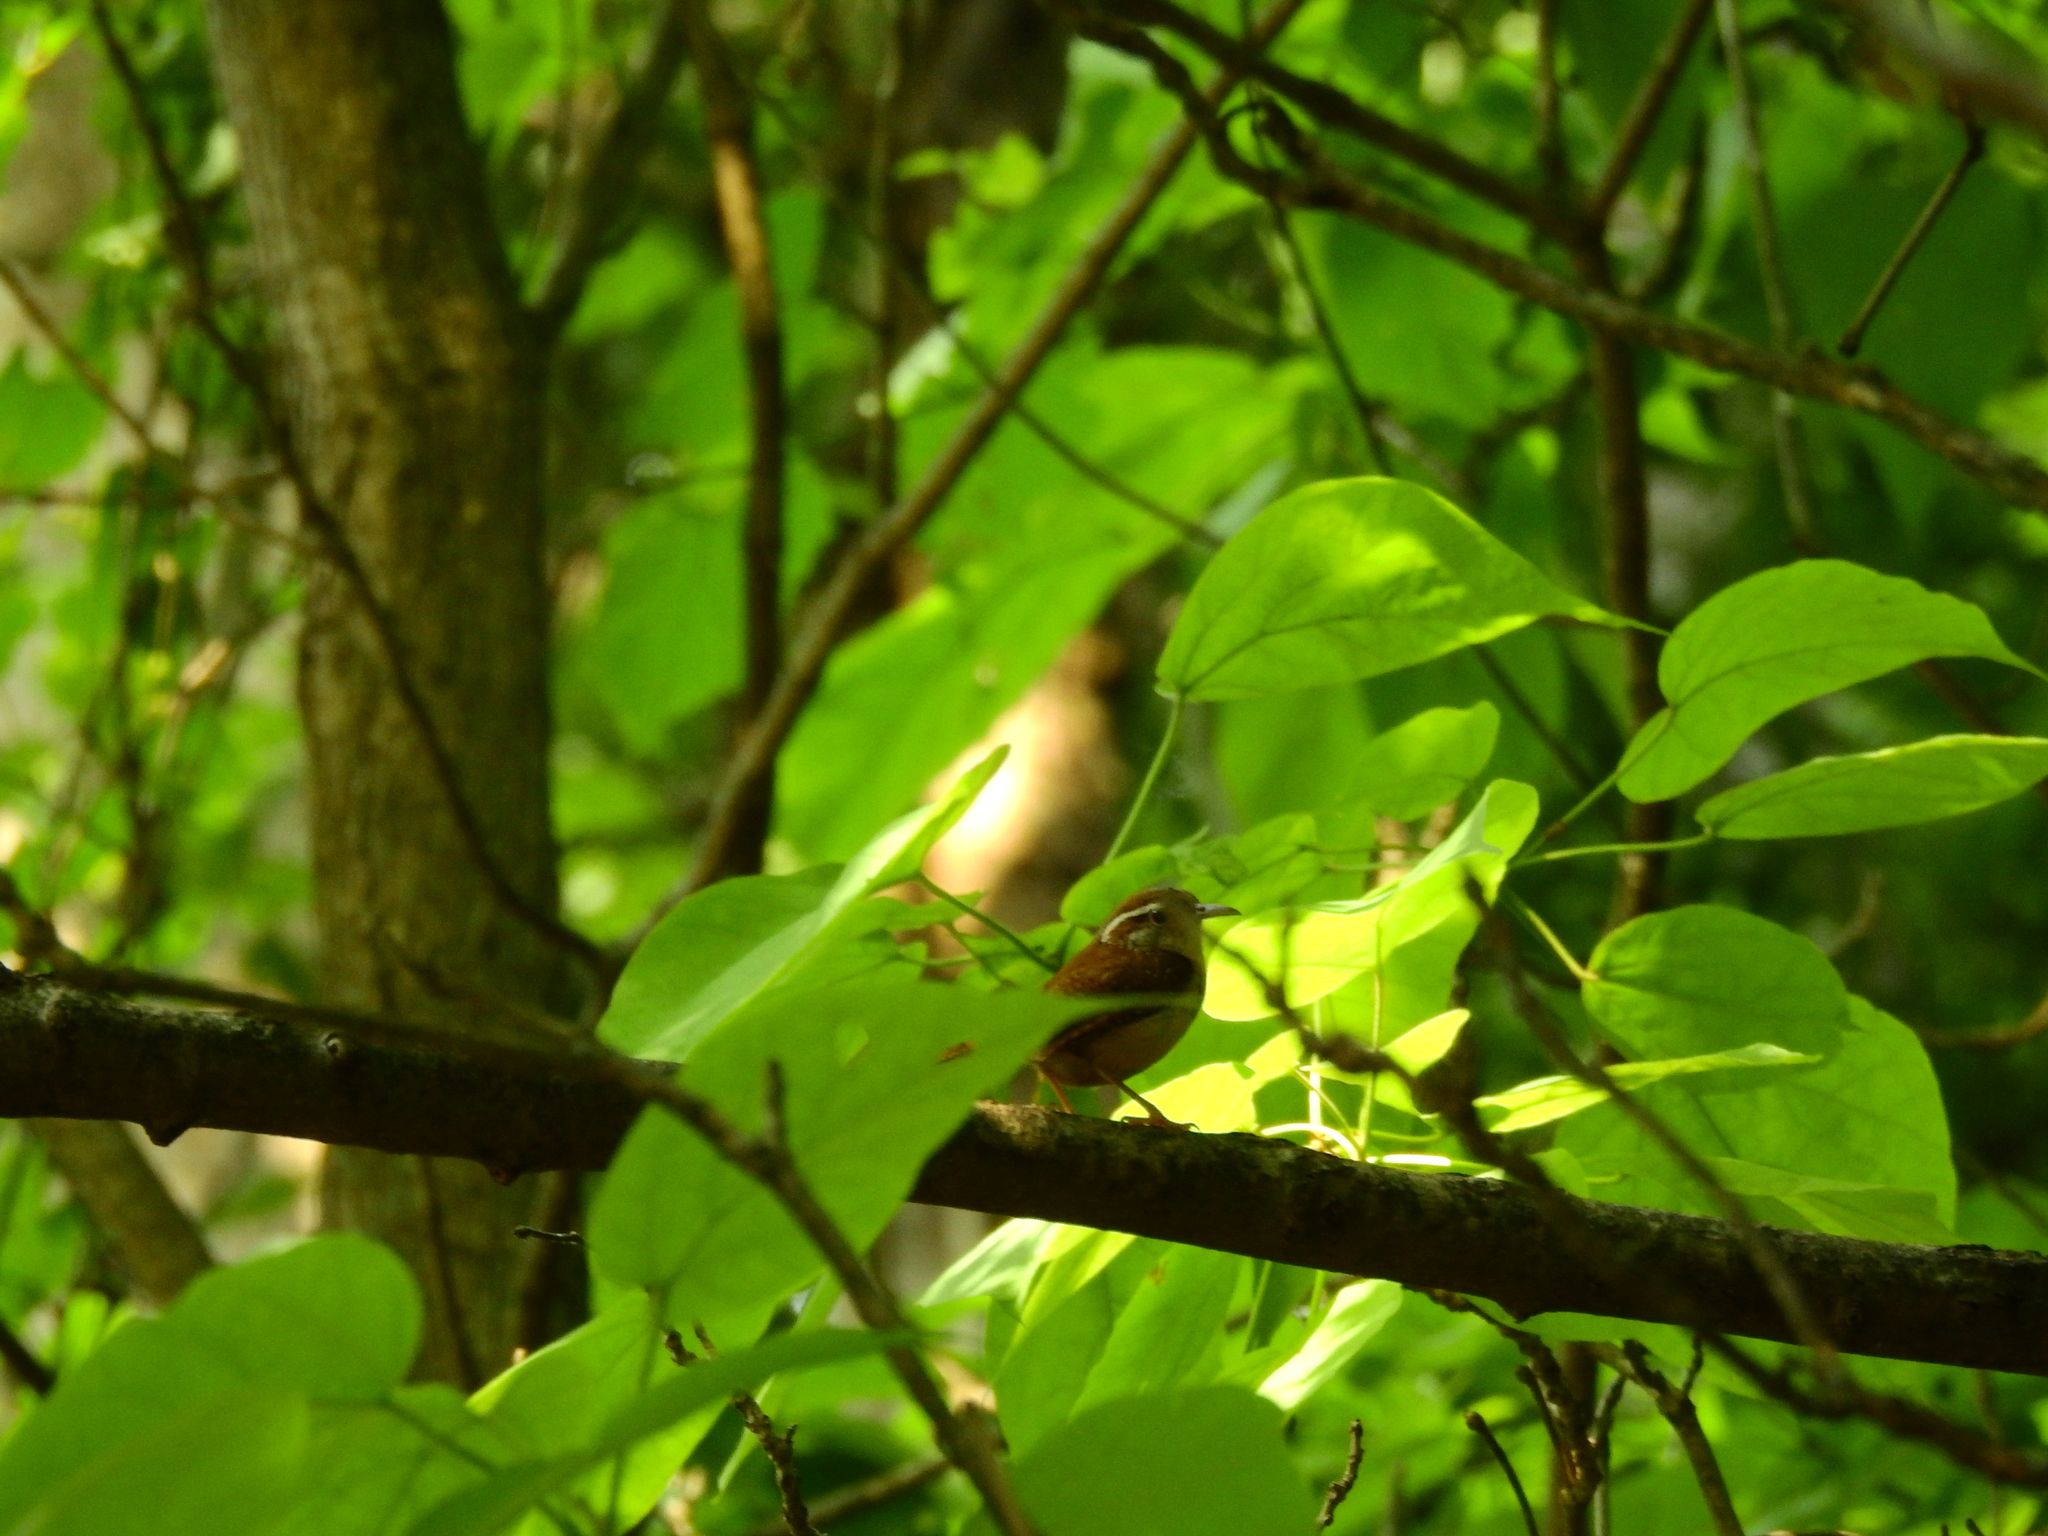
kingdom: Animalia
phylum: Chordata
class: Aves
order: Passeriformes
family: Troglodytidae
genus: Thryothorus
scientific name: Thryothorus ludovicianus
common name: Carolina wren
